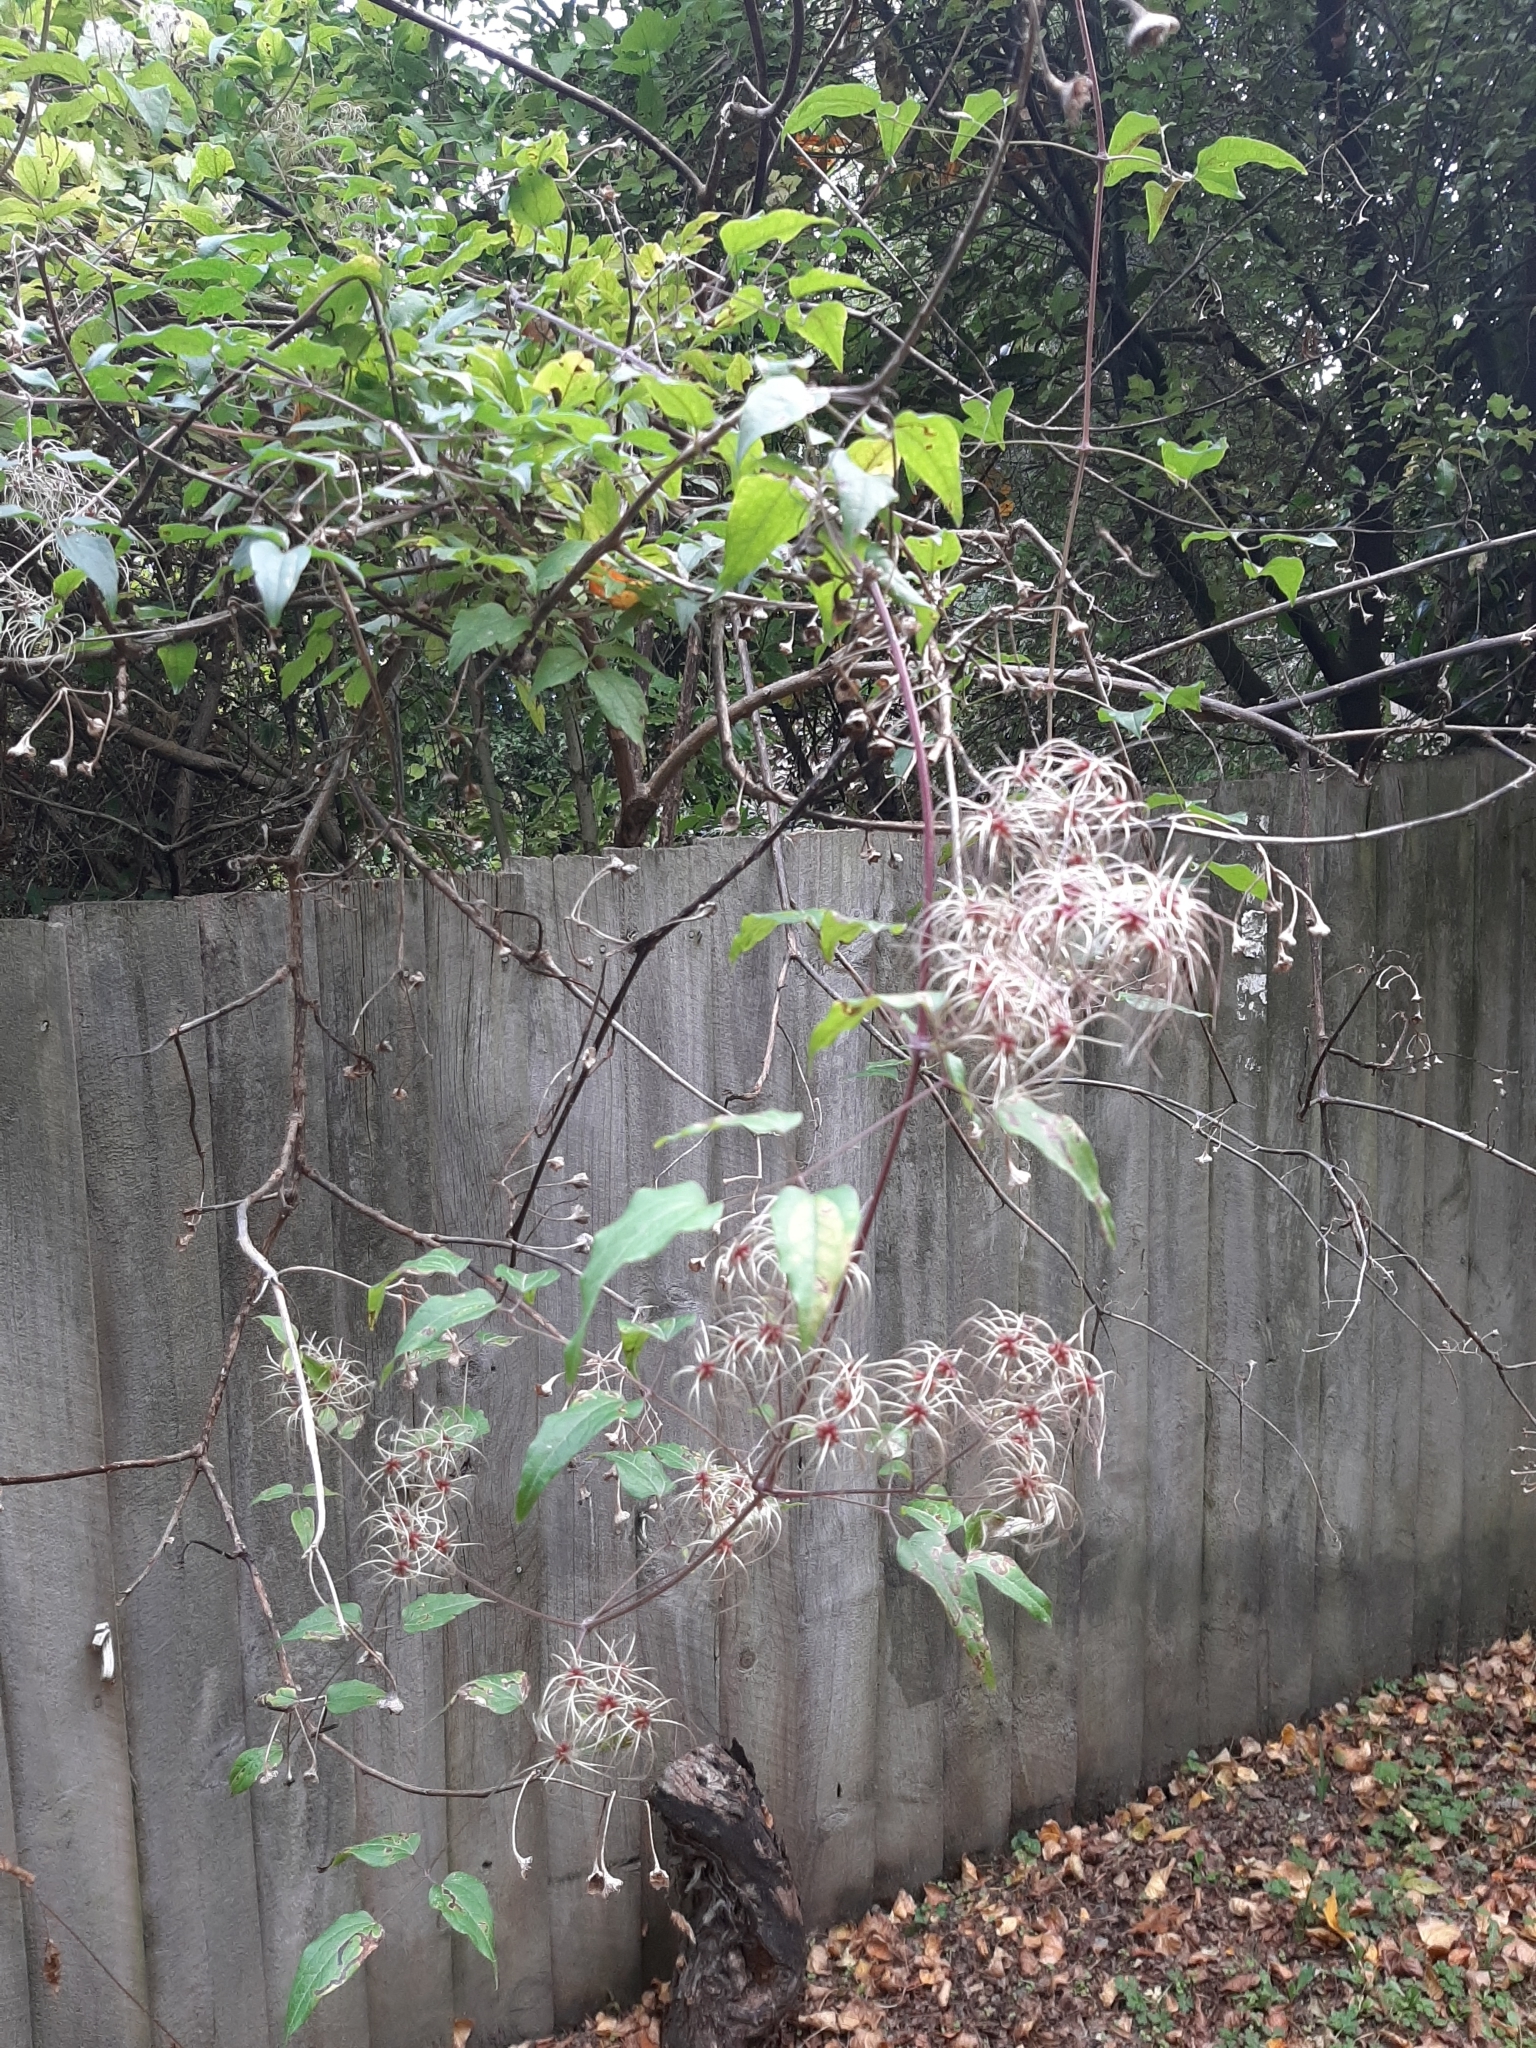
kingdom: Plantae
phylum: Tracheophyta
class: Magnoliopsida
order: Ranunculales
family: Ranunculaceae
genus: Clematis
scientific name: Clematis vitalba
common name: Evergreen clematis
